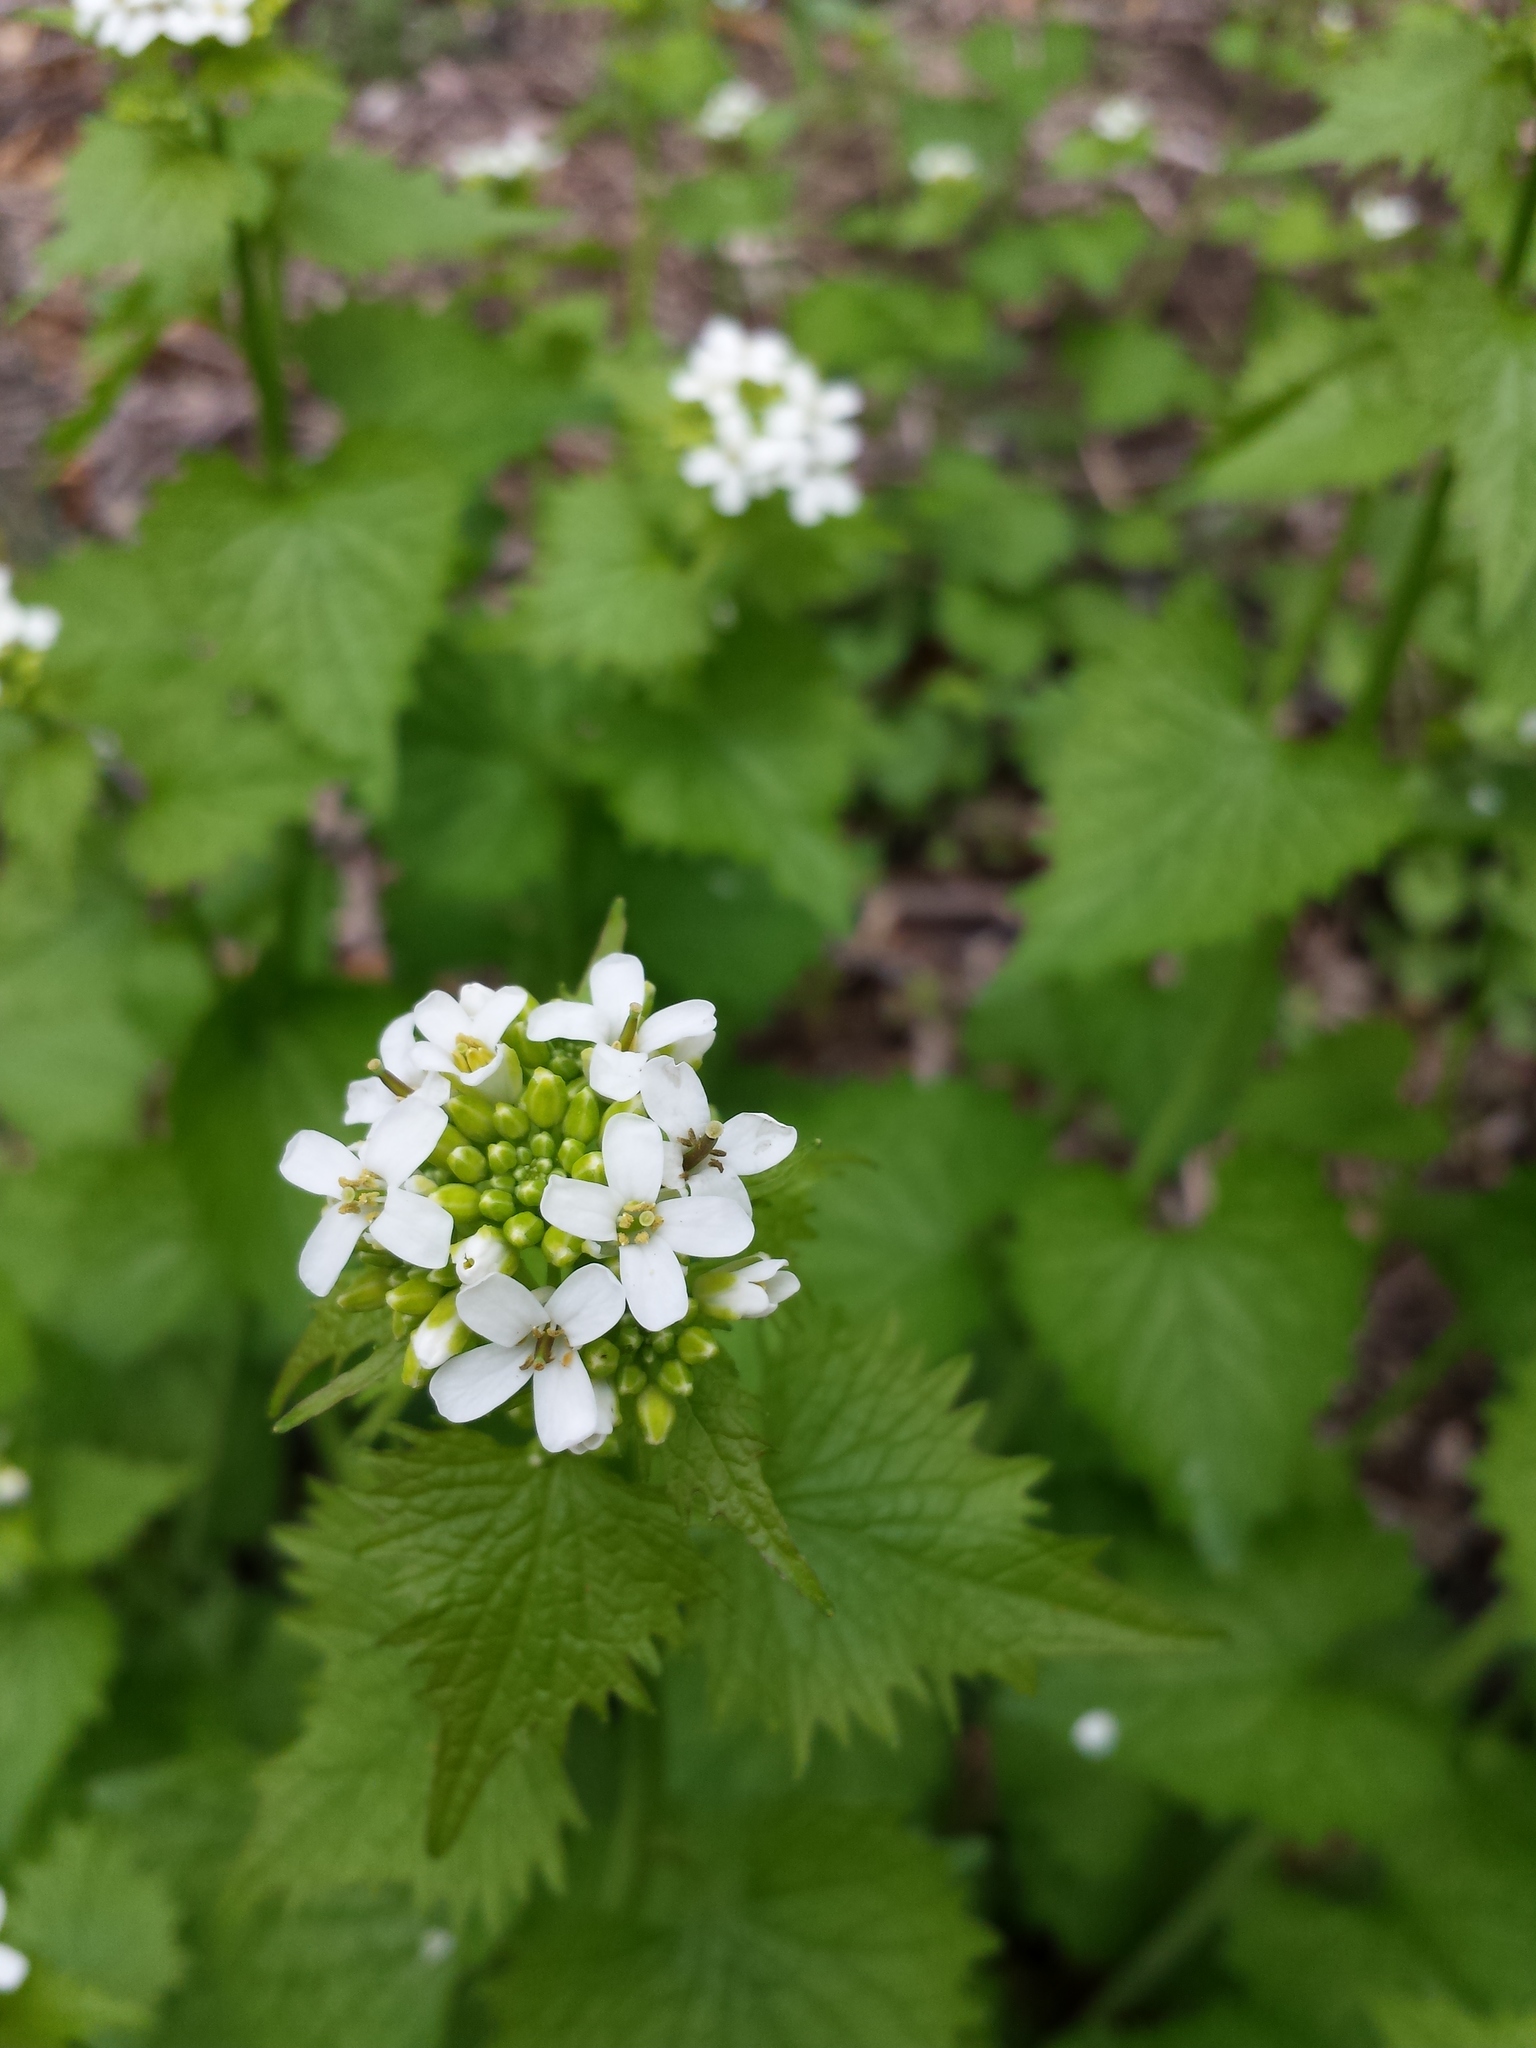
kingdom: Plantae
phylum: Tracheophyta
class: Magnoliopsida
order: Brassicales
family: Brassicaceae
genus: Alliaria
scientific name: Alliaria petiolata
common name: Garlic mustard
